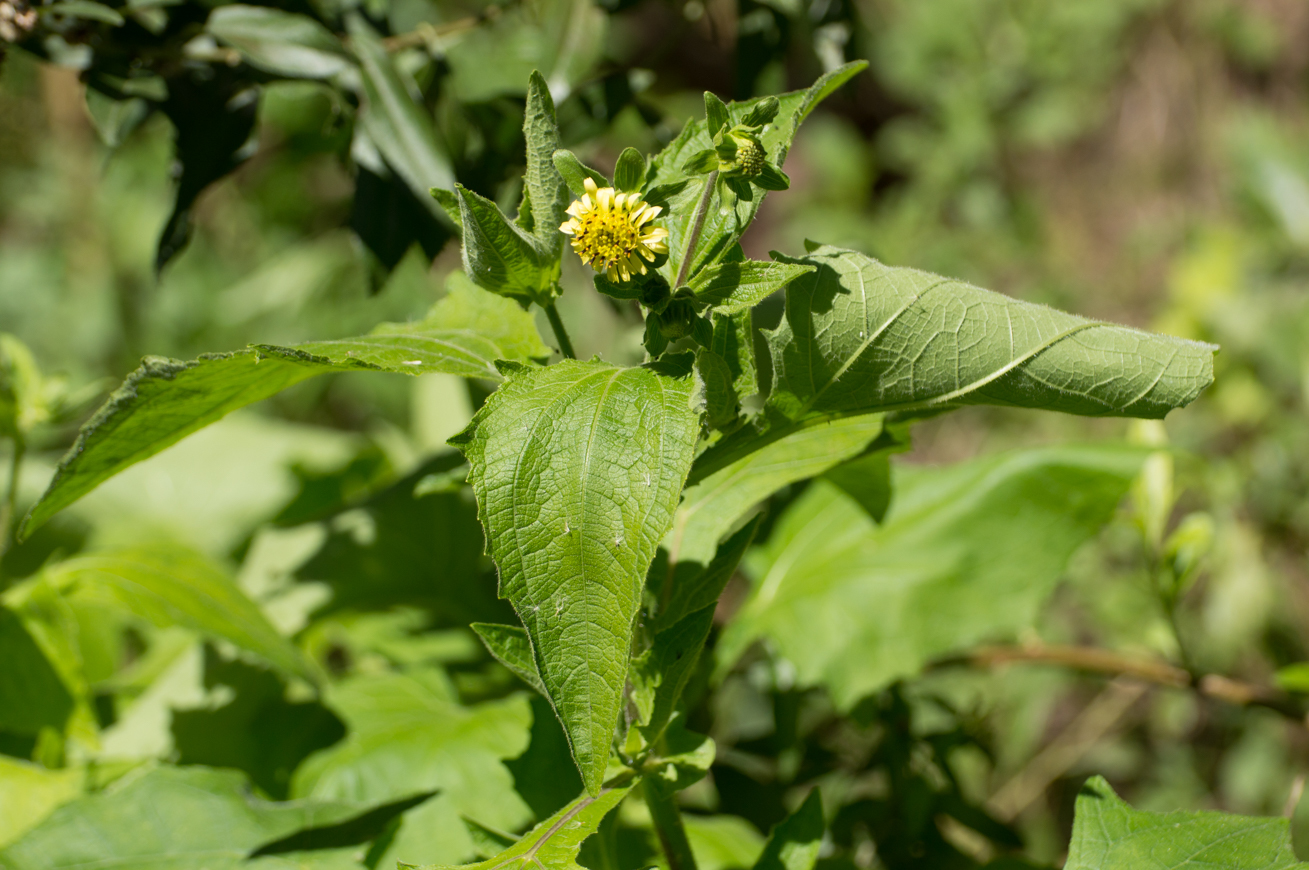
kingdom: Plantae
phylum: Tracheophyta
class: Magnoliopsida
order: Asterales
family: Asteraceae
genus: Smallanthus
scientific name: Smallanthus connatus
